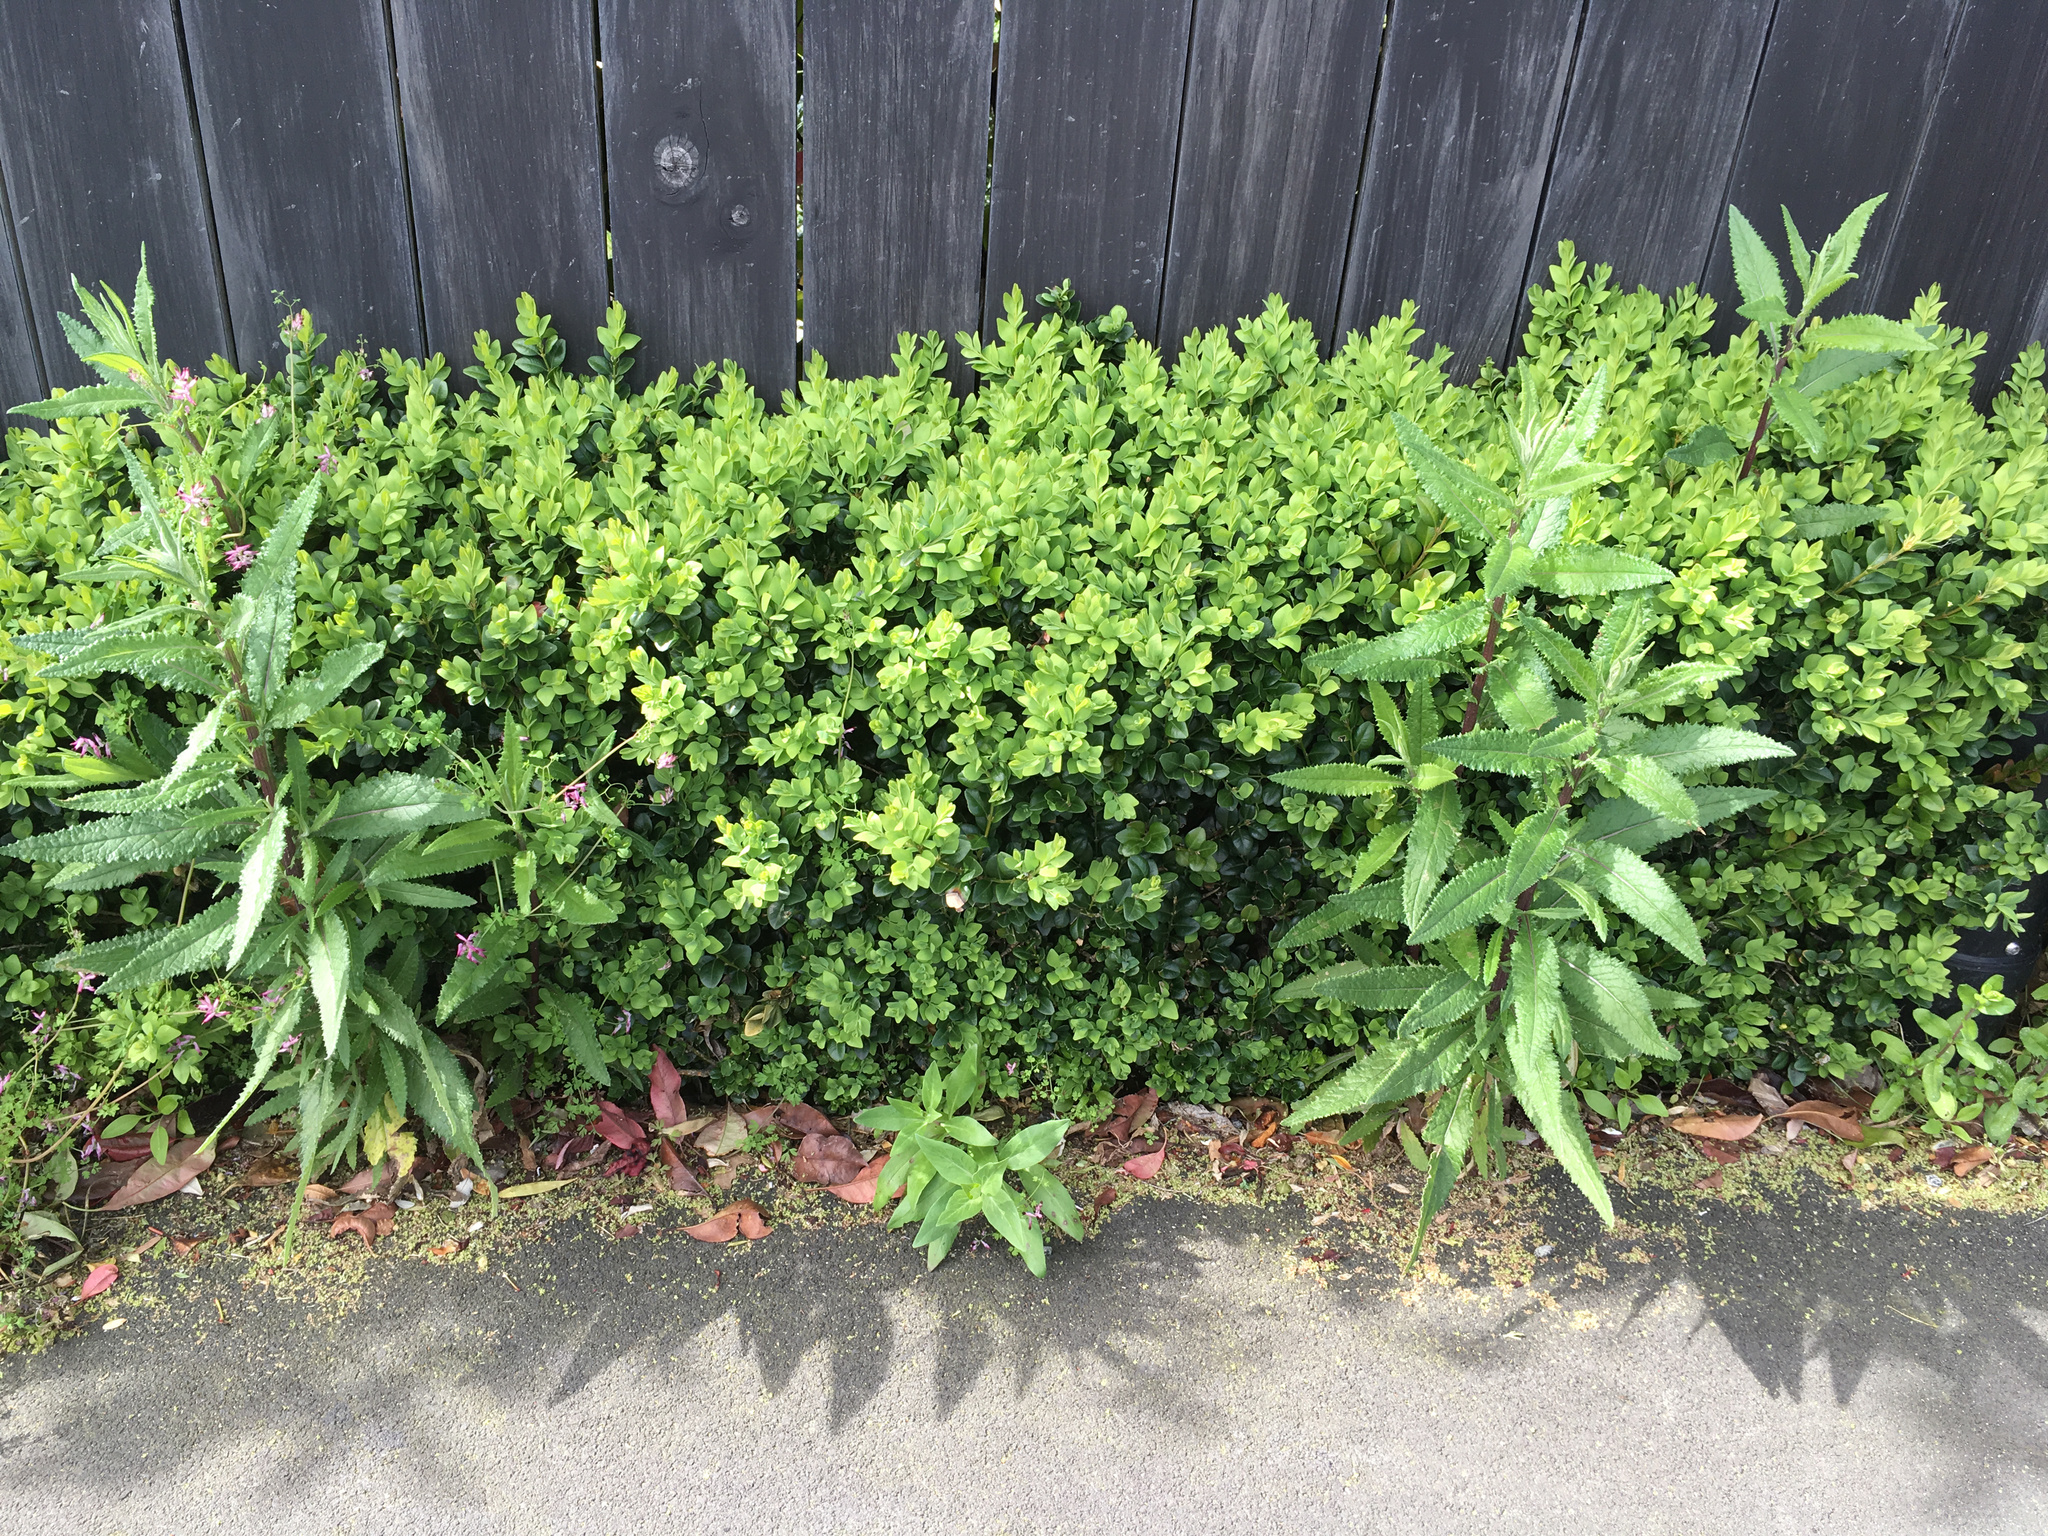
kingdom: Plantae
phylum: Tracheophyta
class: Magnoliopsida
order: Asterales
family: Asteraceae
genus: Senecio
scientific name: Senecio minimus
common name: Toothed fireweed
